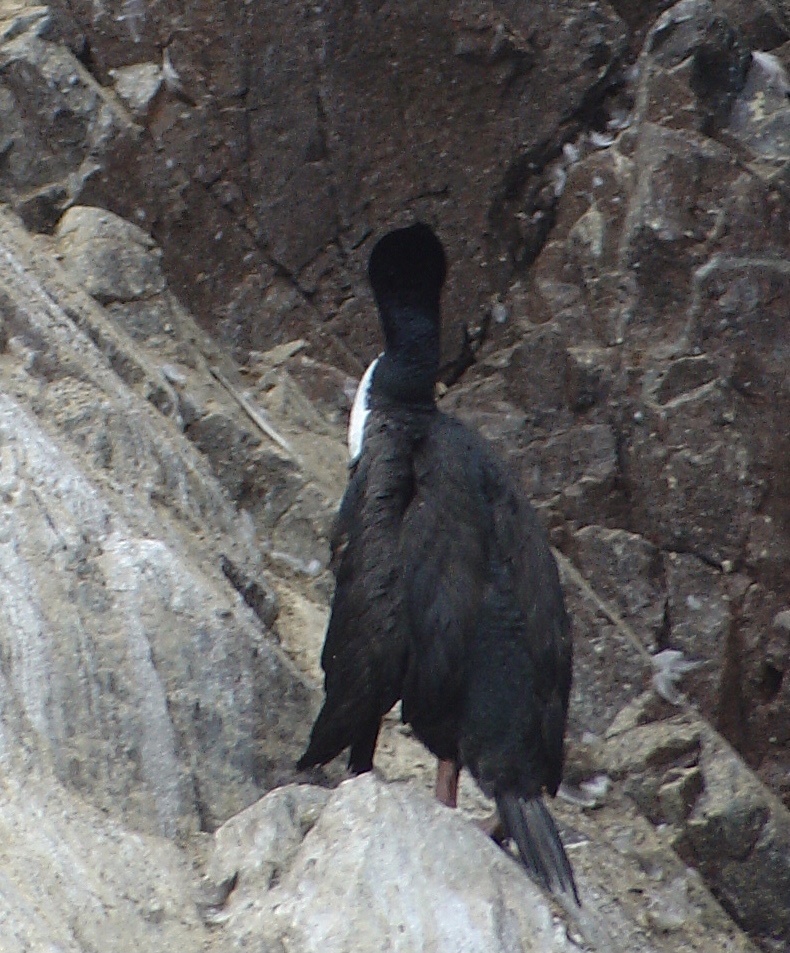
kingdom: Animalia
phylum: Chordata
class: Aves
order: Suliformes
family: Phalacrocoracidae
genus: Leucocarbo
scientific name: Leucocarbo bougainvillii
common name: Guanay cormorant
